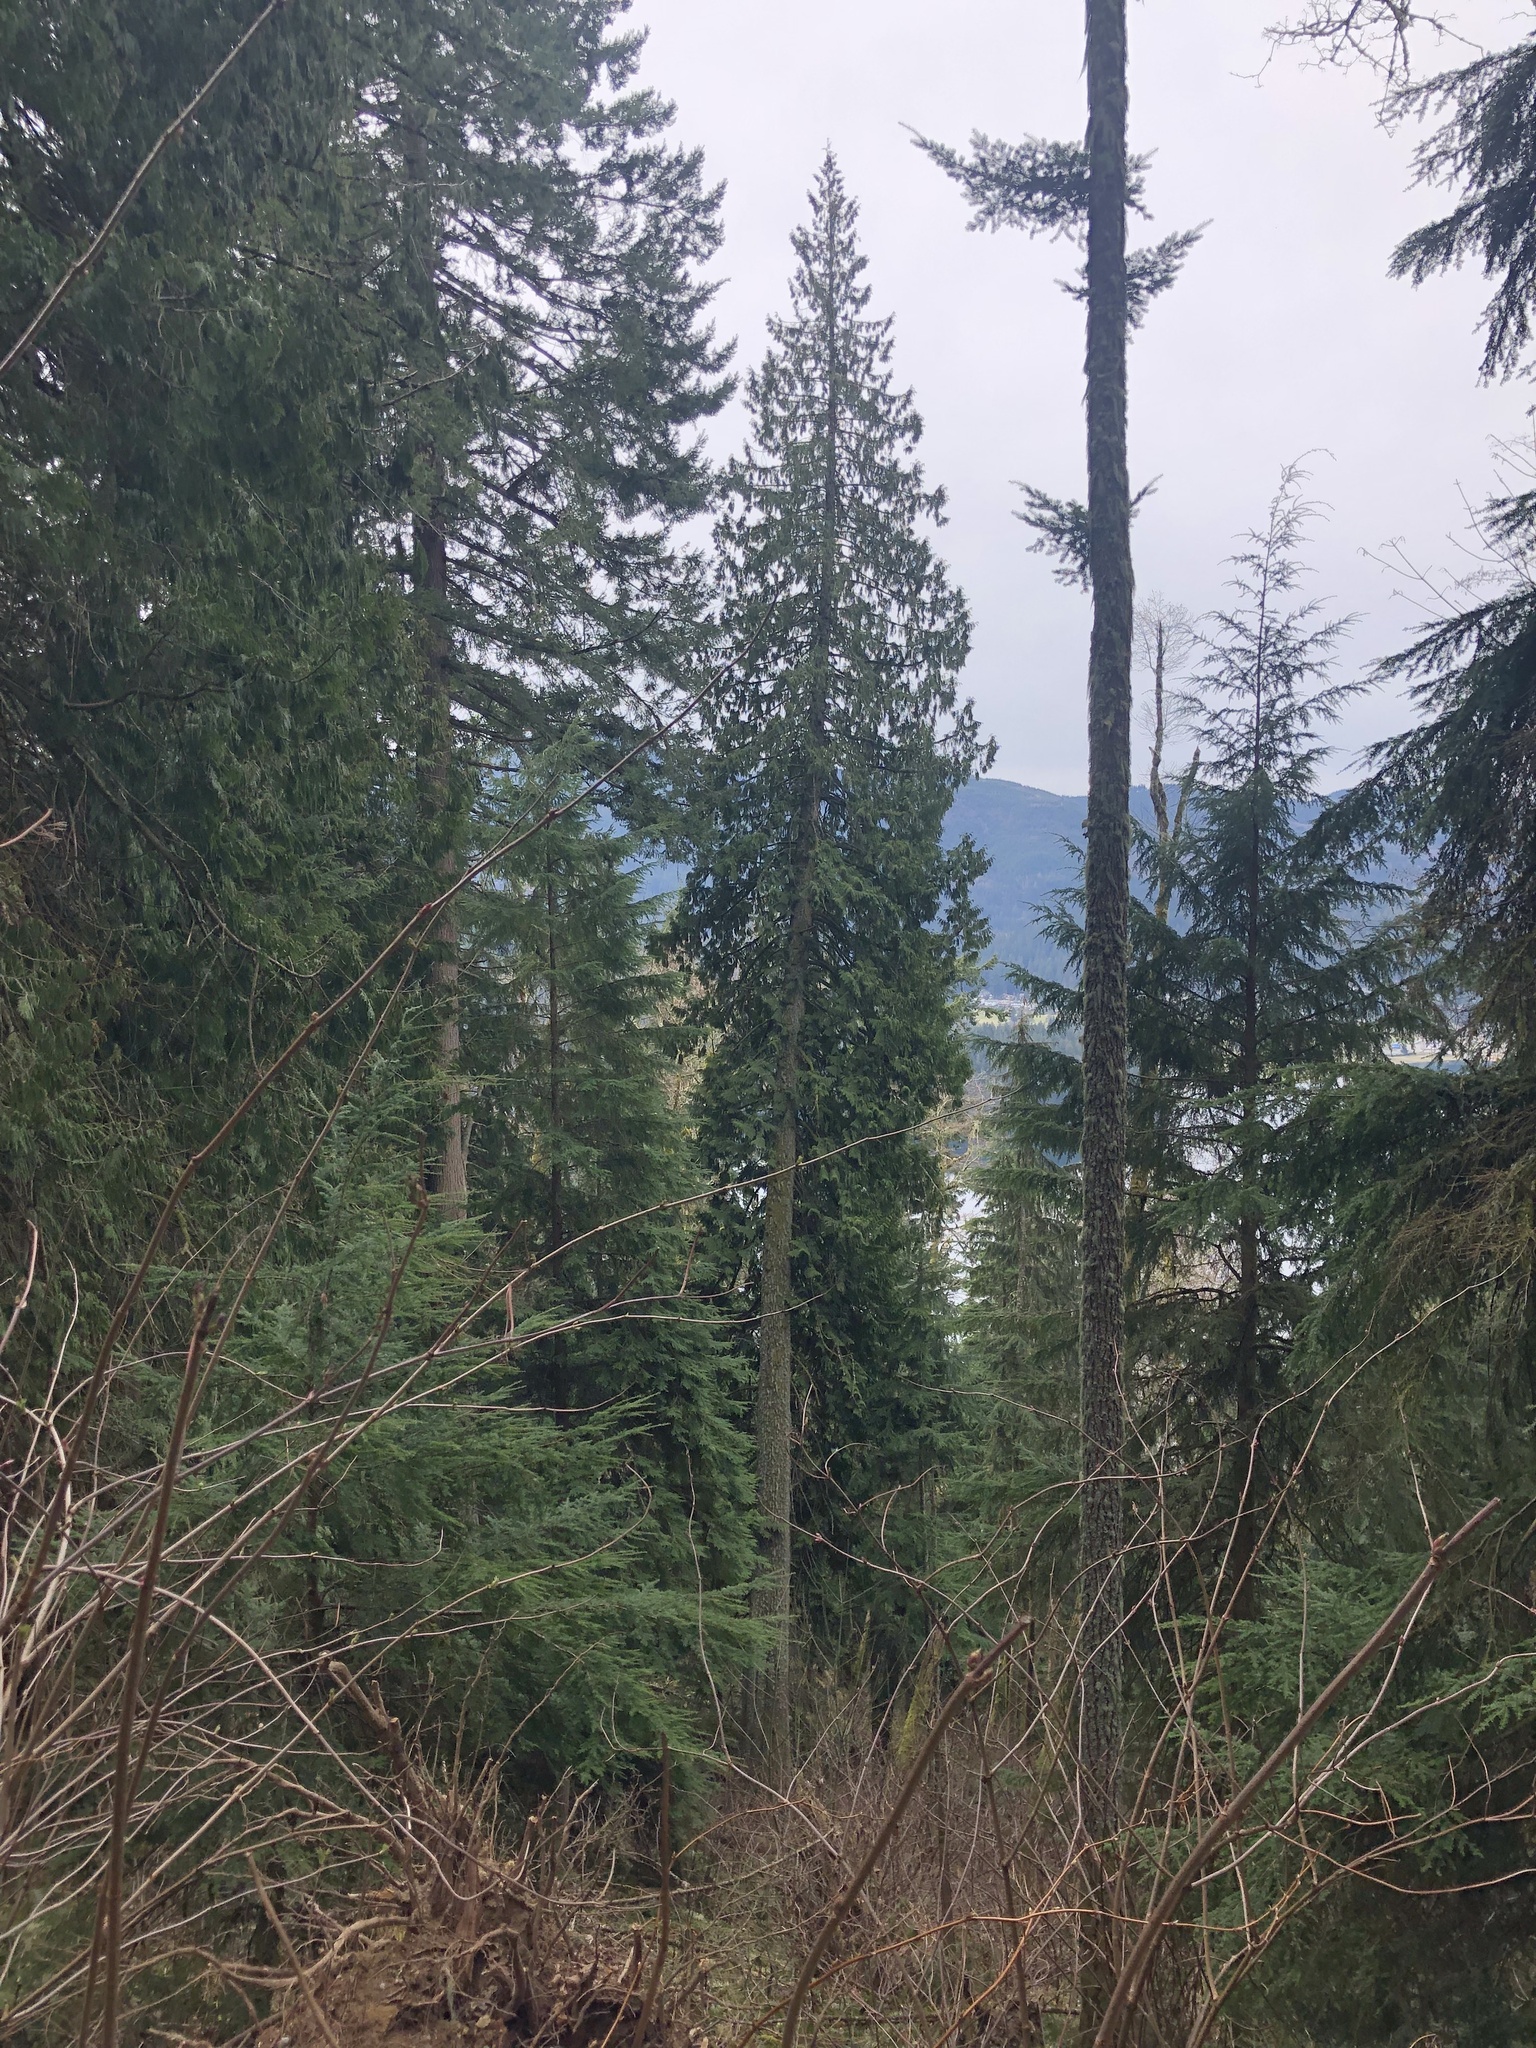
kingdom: Plantae
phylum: Tracheophyta
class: Pinopsida
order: Pinales
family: Cupressaceae
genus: Thuja
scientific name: Thuja plicata
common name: Western red-cedar
